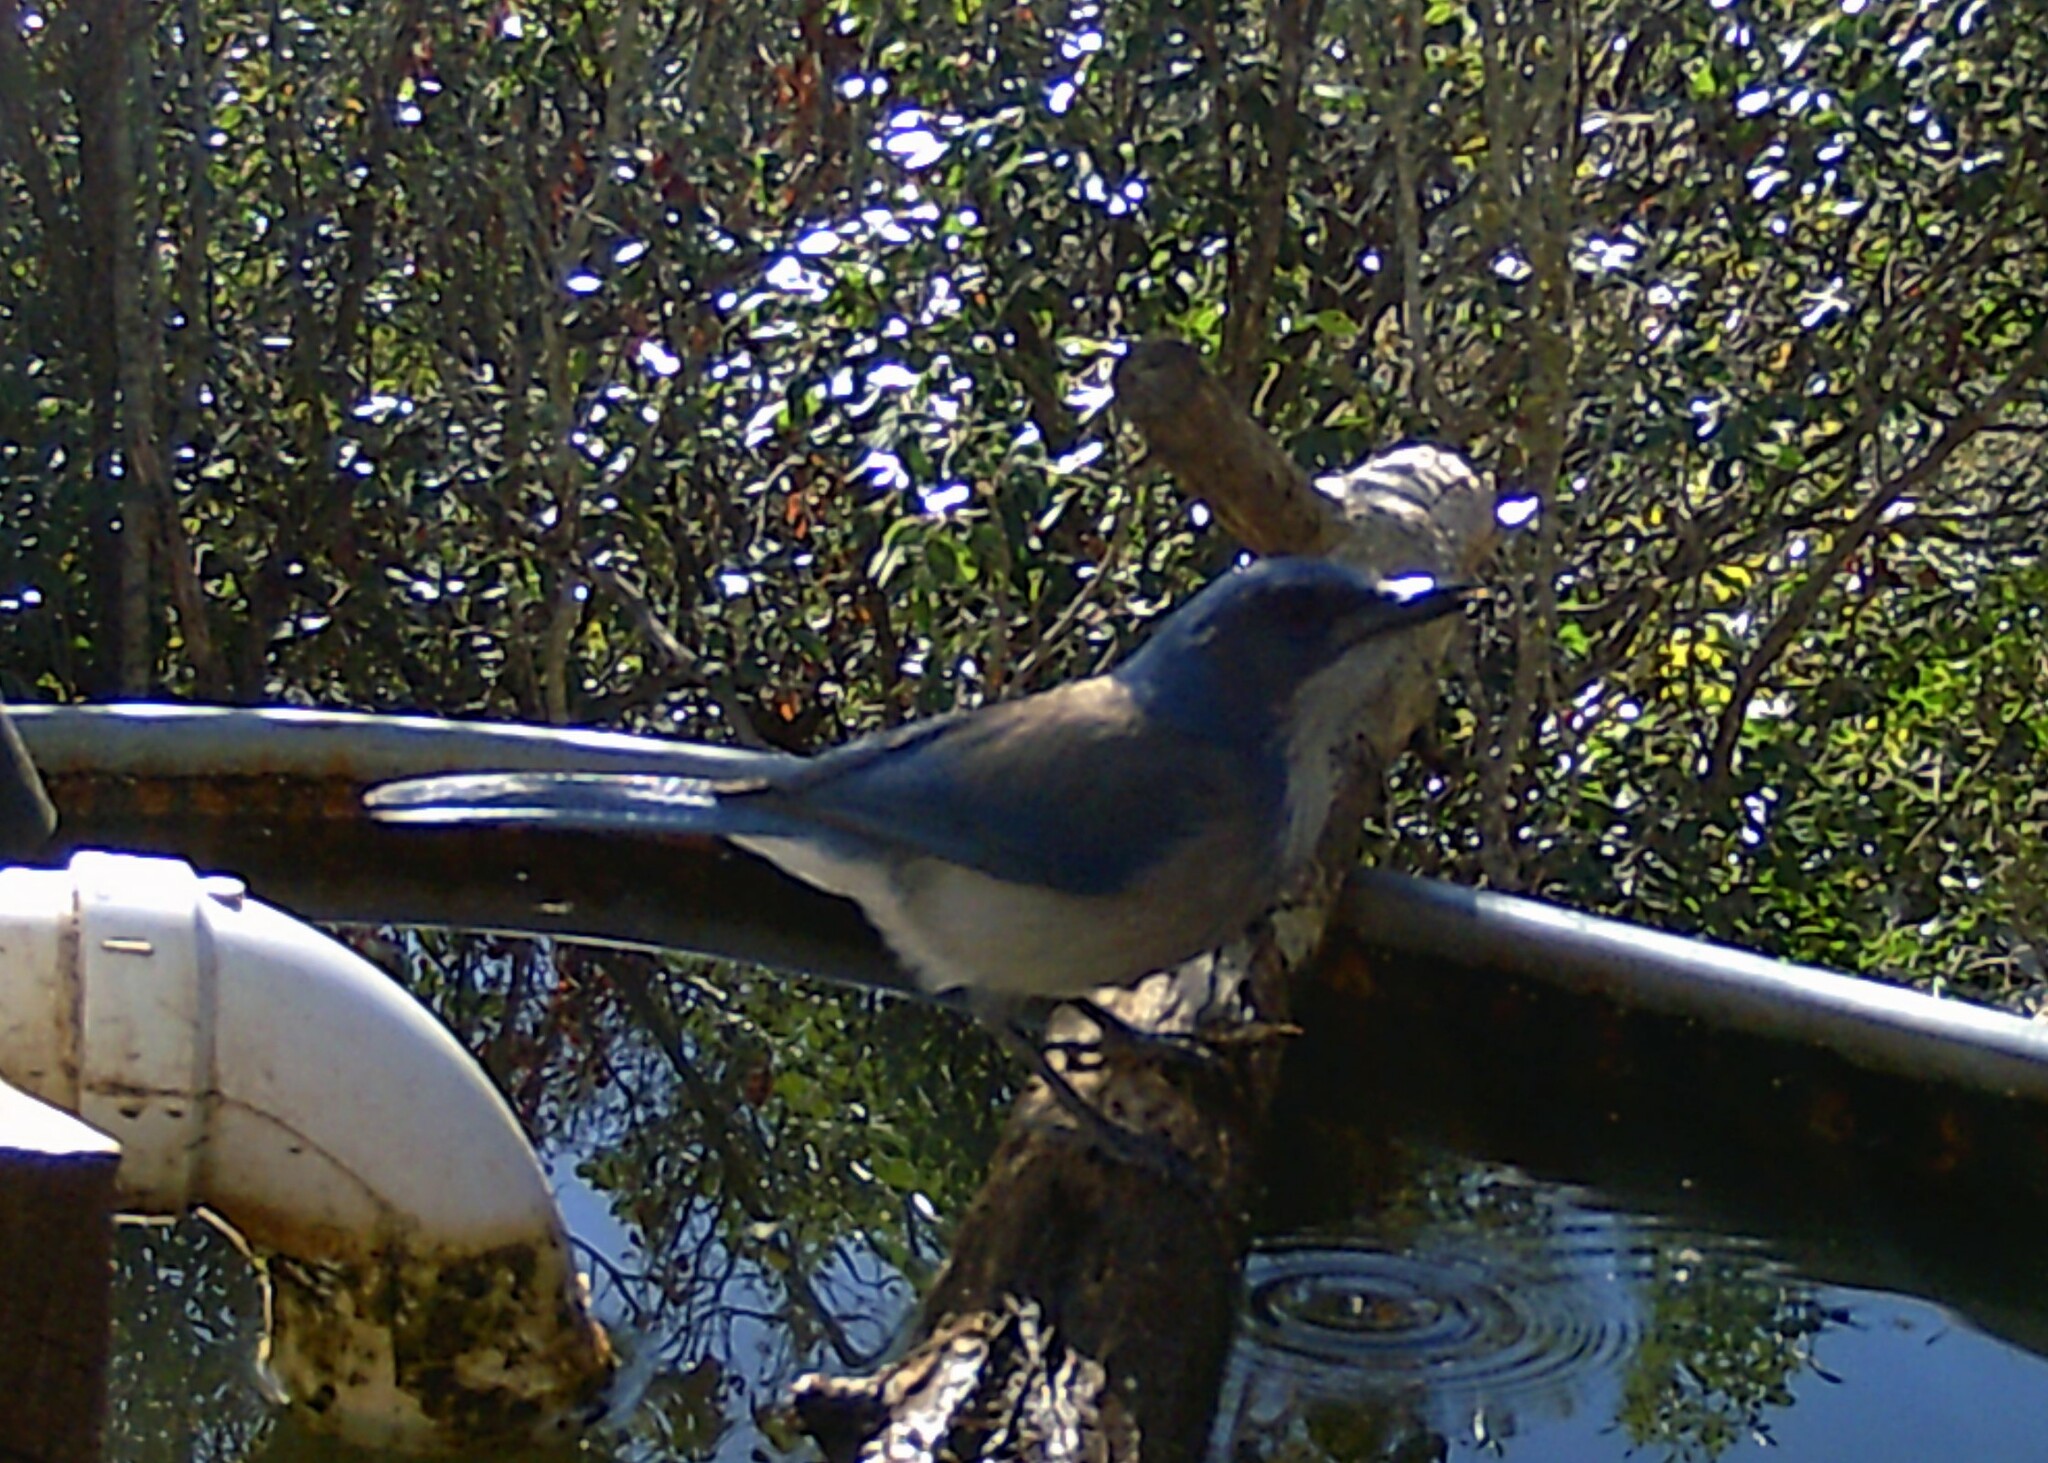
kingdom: Animalia
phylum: Chordata
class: Aves
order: Passeriformes
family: Corvidae
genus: Aphelocoma
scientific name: Aphelocoma woodhouseii
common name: Woodhouse's scrub-jay
